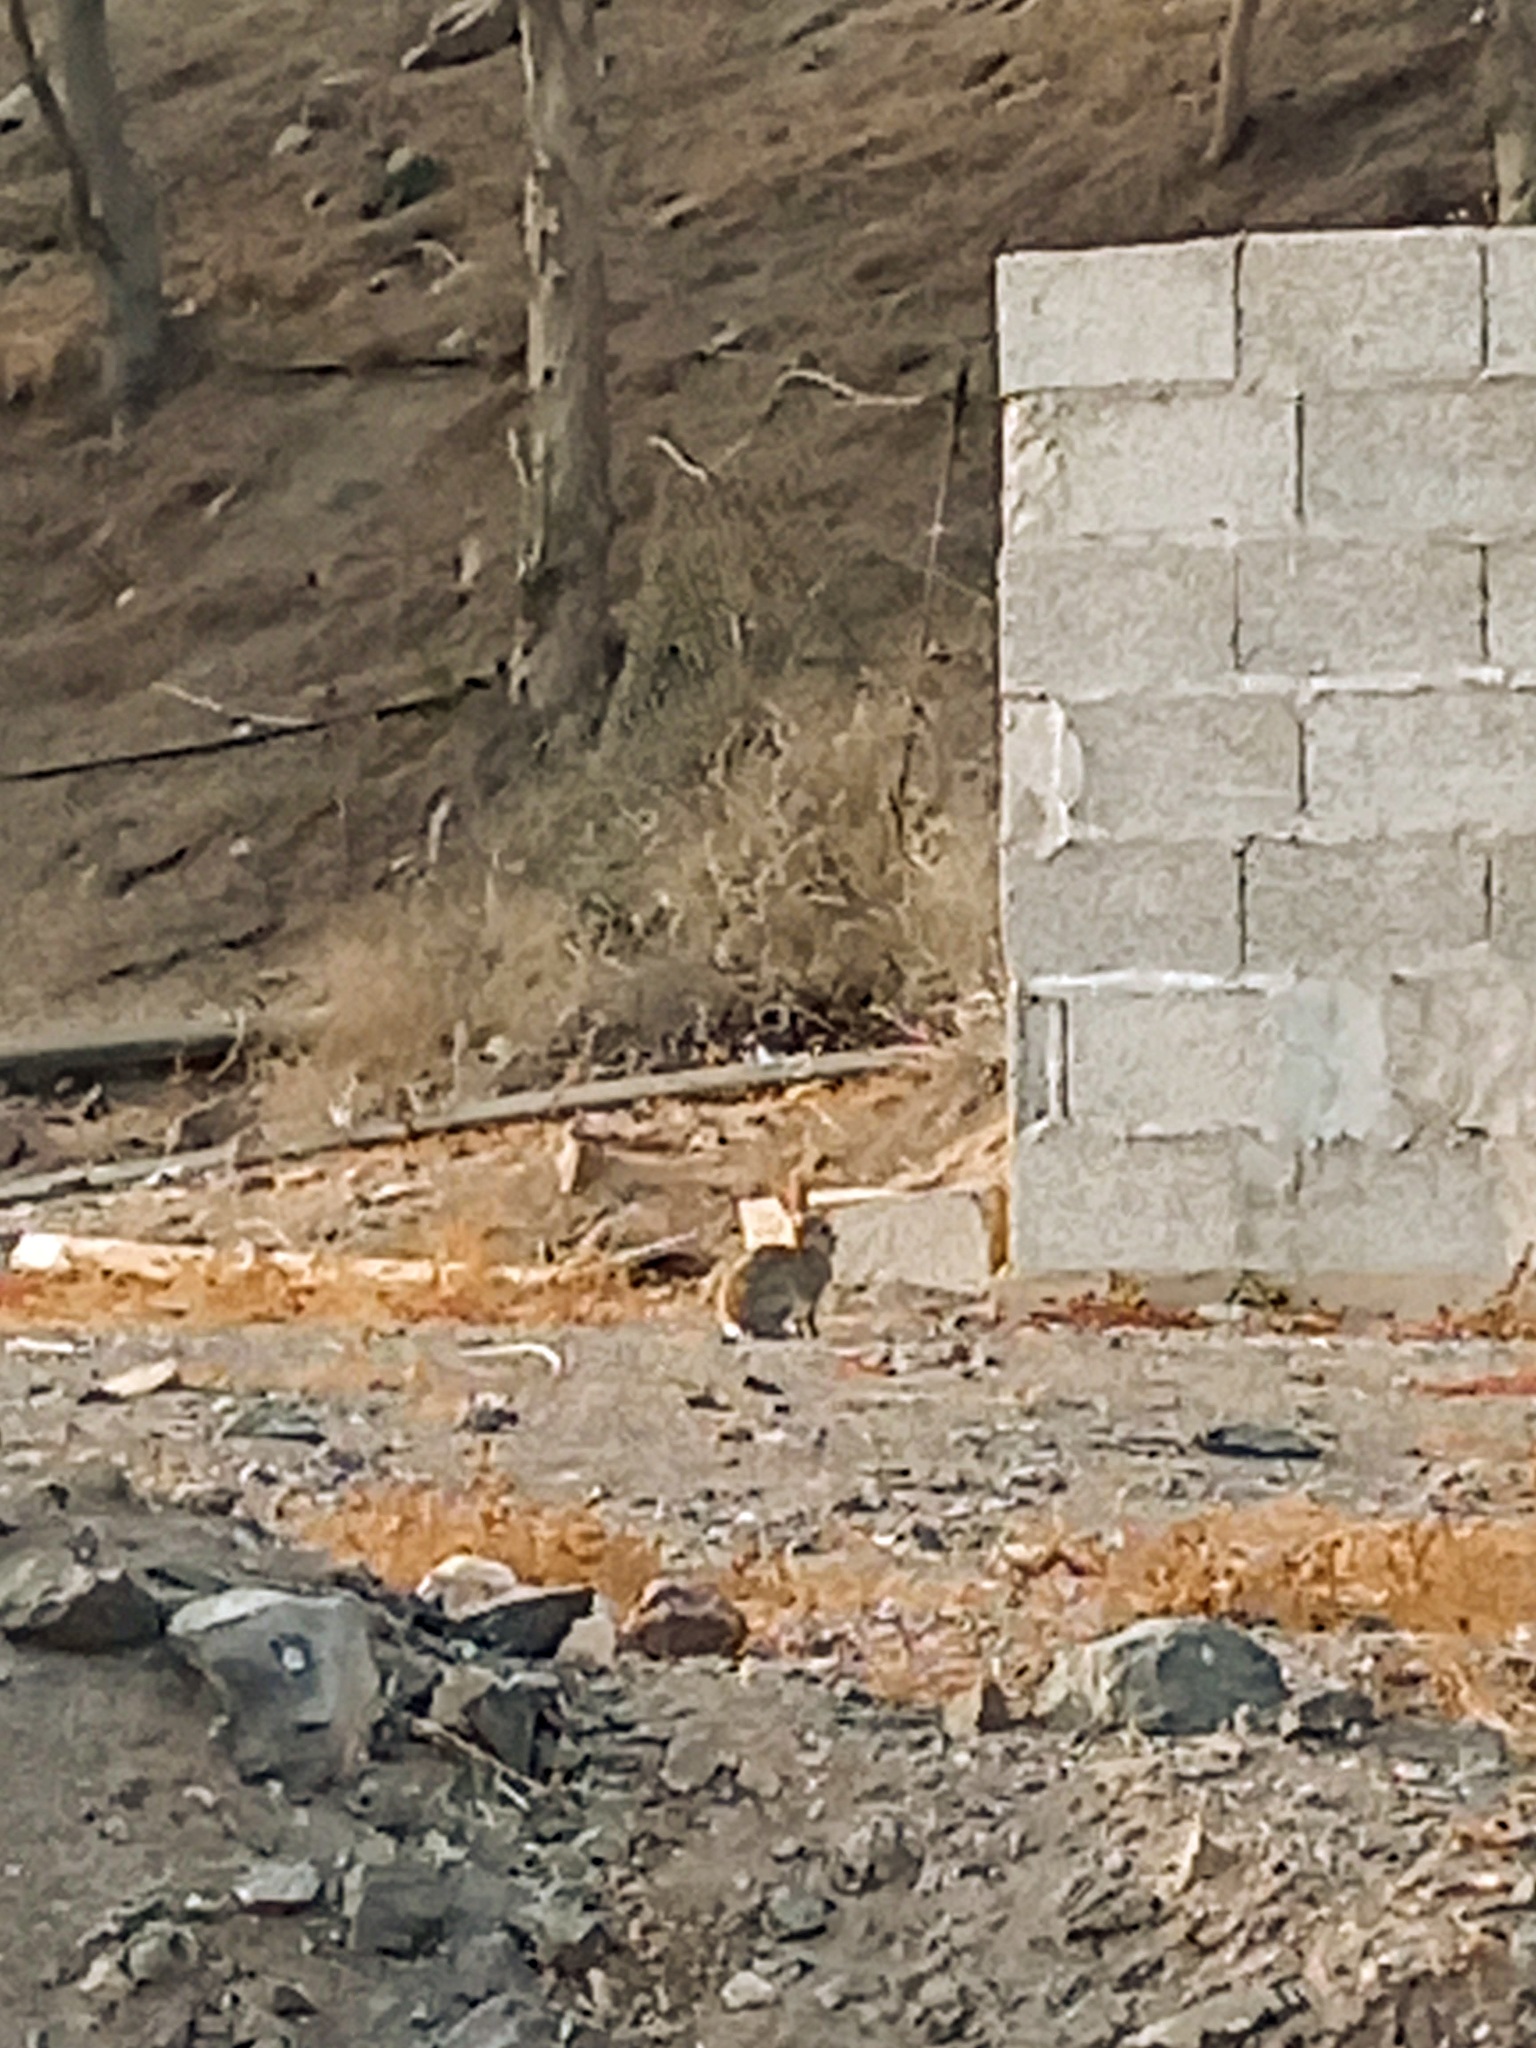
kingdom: Animalia
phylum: Chordata
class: Mammalia
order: Lagomorpha
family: Leporidae
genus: Oryctolagus
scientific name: Oryctolagus cuniculus
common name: European rabbit
